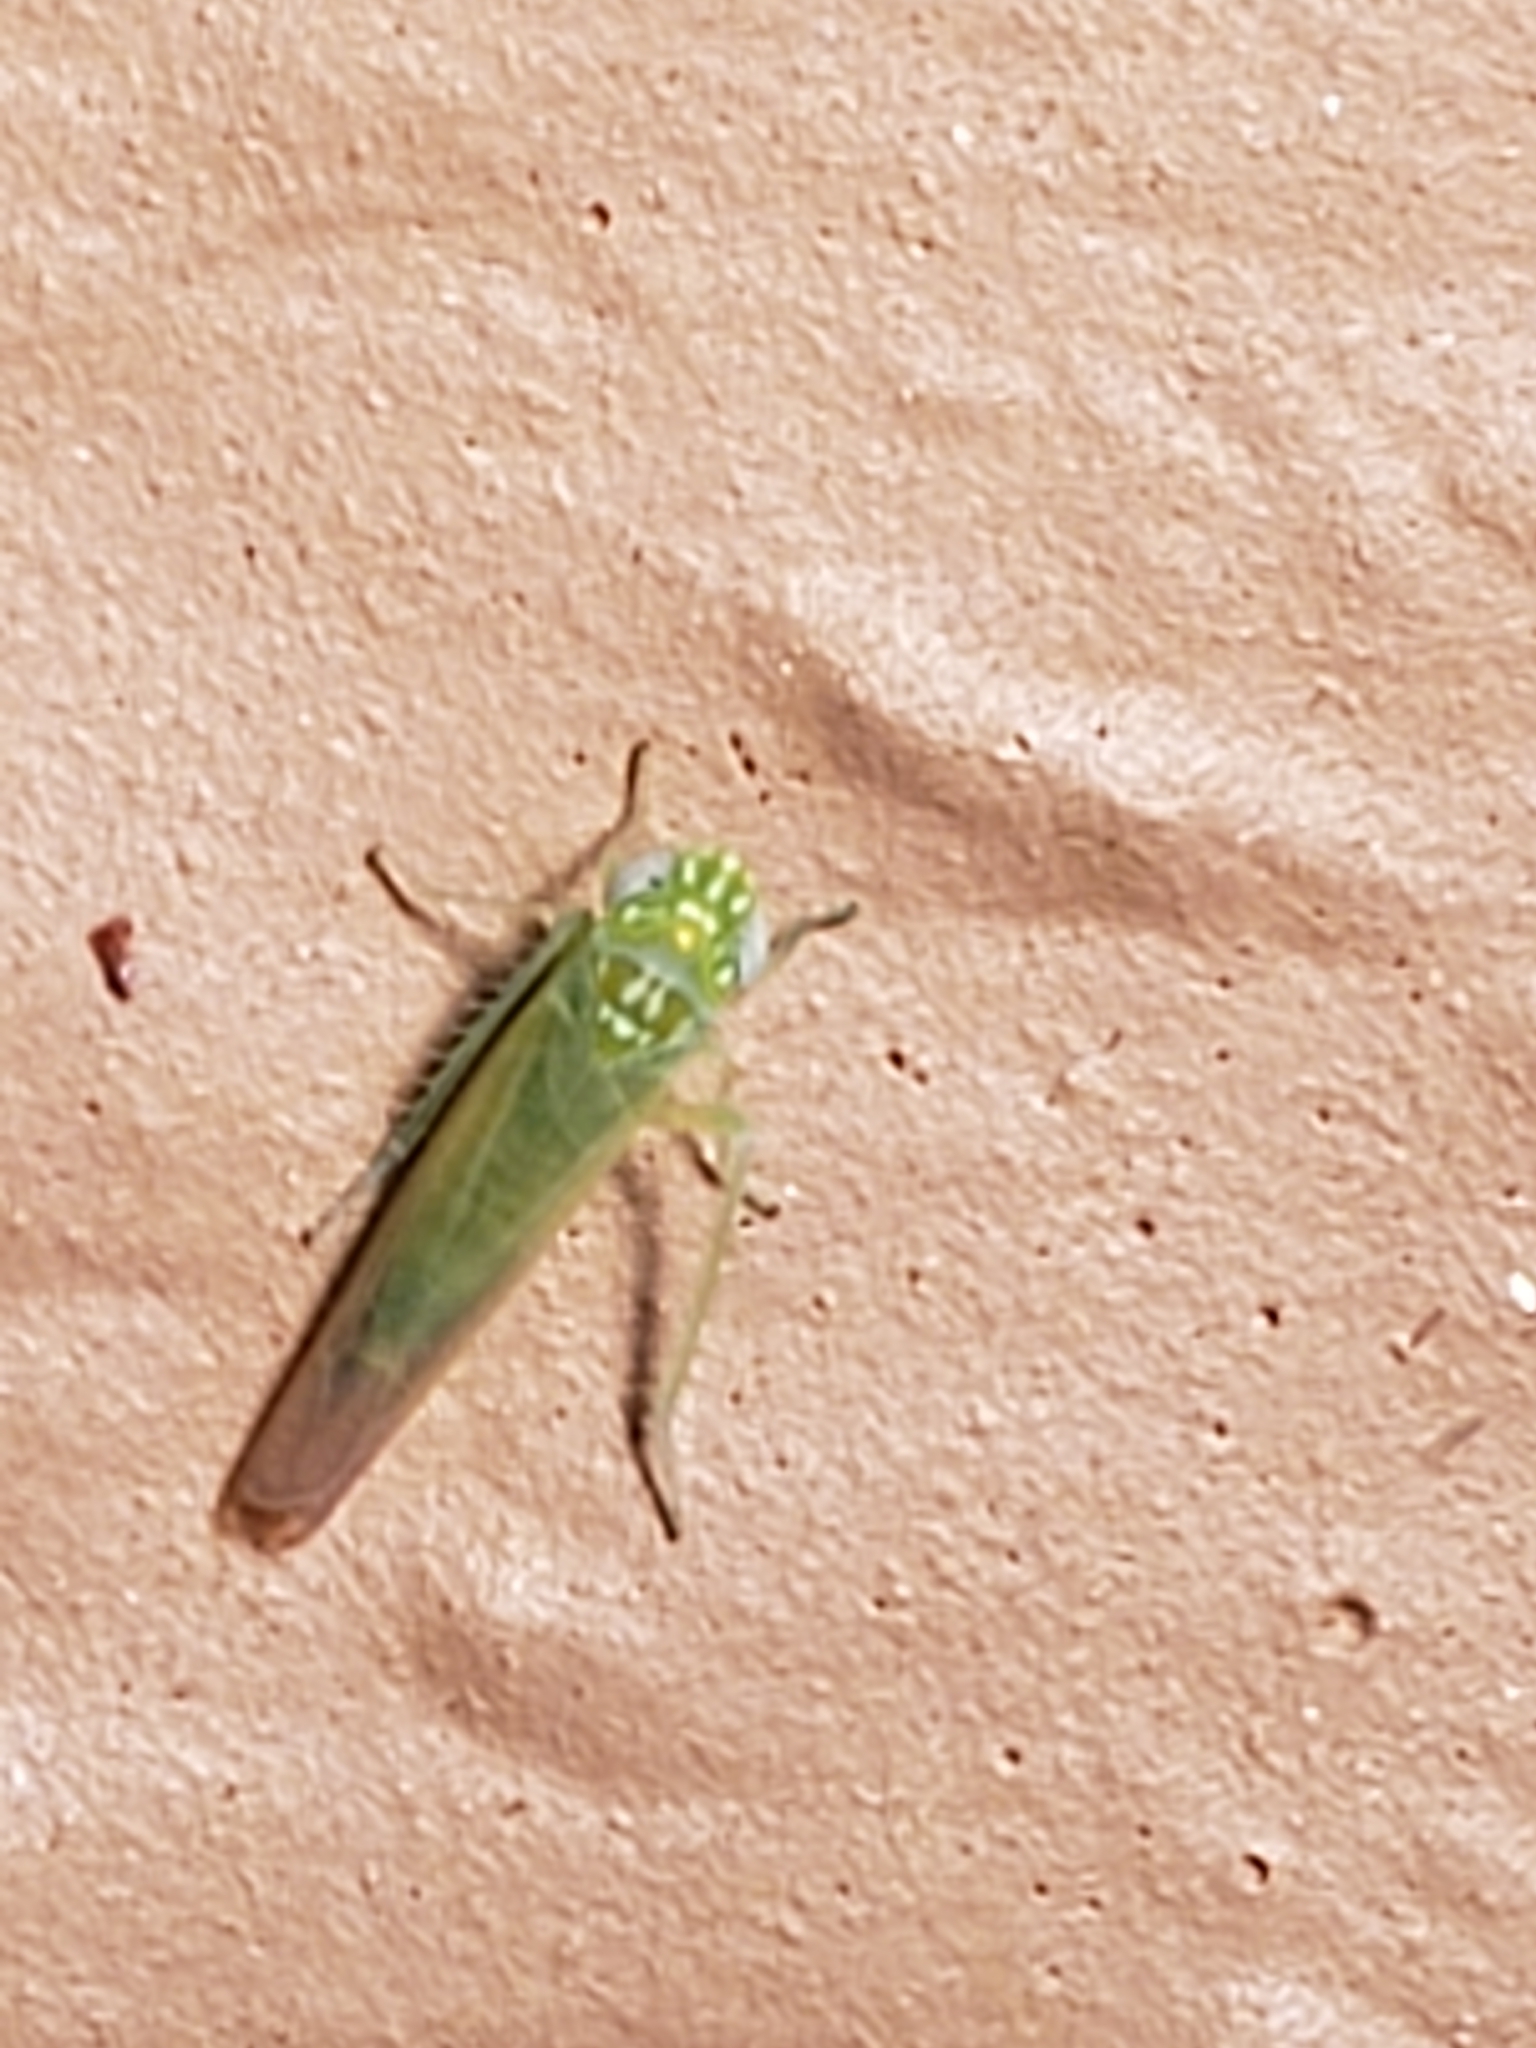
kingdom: Animalia
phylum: Arthropoda
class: Insecta
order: Hemiptera
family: Cicadellidae
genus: Empoasca
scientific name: Empoasca fabae
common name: Potato leafhopper
